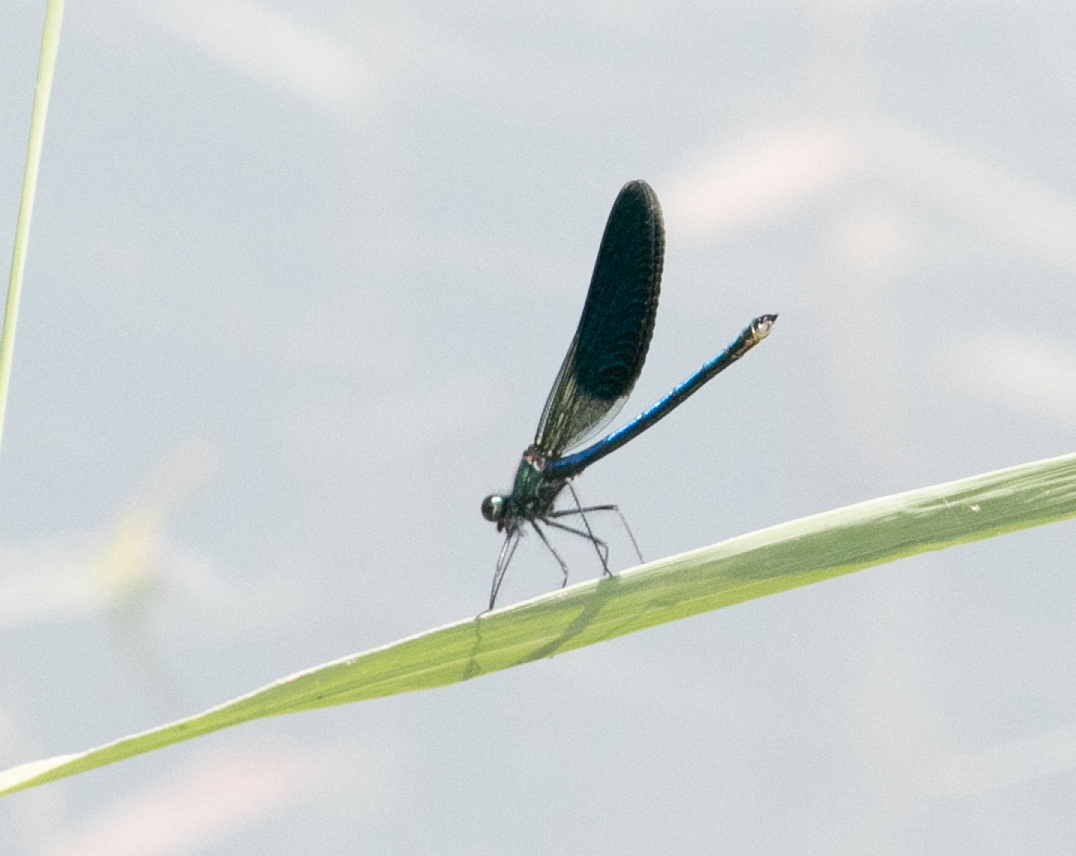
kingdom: Animalia
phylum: Arthropoda
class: Insecta
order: Odonata
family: Calopterygidae
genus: Calopteryx
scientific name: Calopteryx splendens
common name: Banded demoiselle
